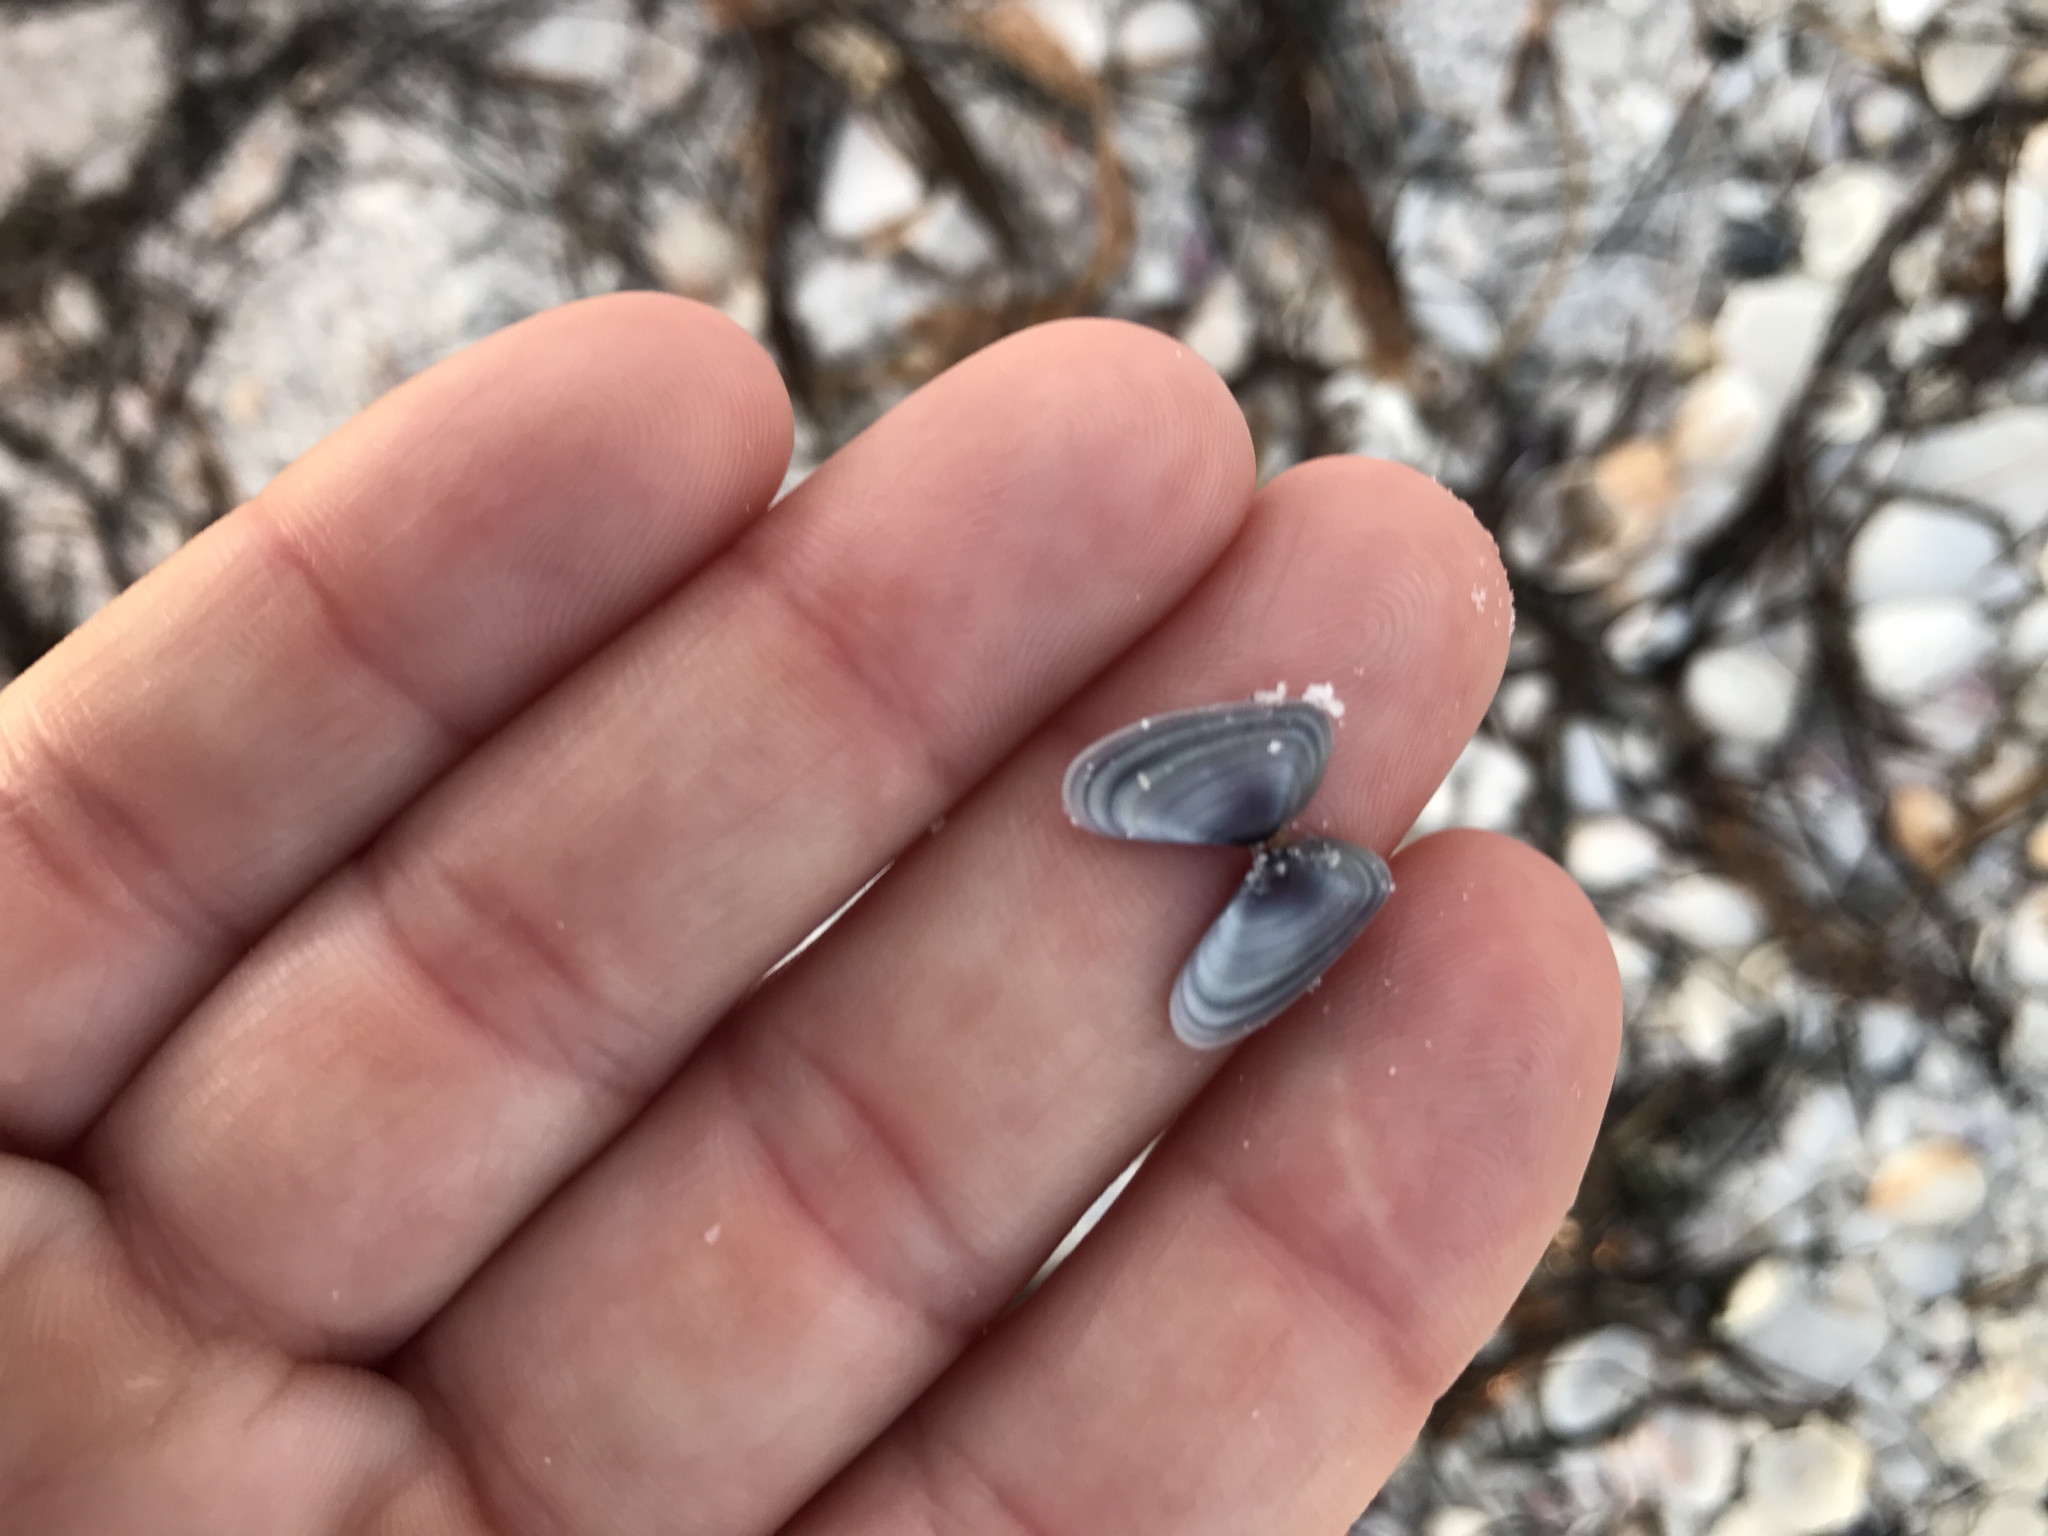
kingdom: Animalia
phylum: Mollusca
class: Bivalvia
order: Cardiida
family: Donacidae
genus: Donax
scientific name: Donax variabilis
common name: Butterfly shell
